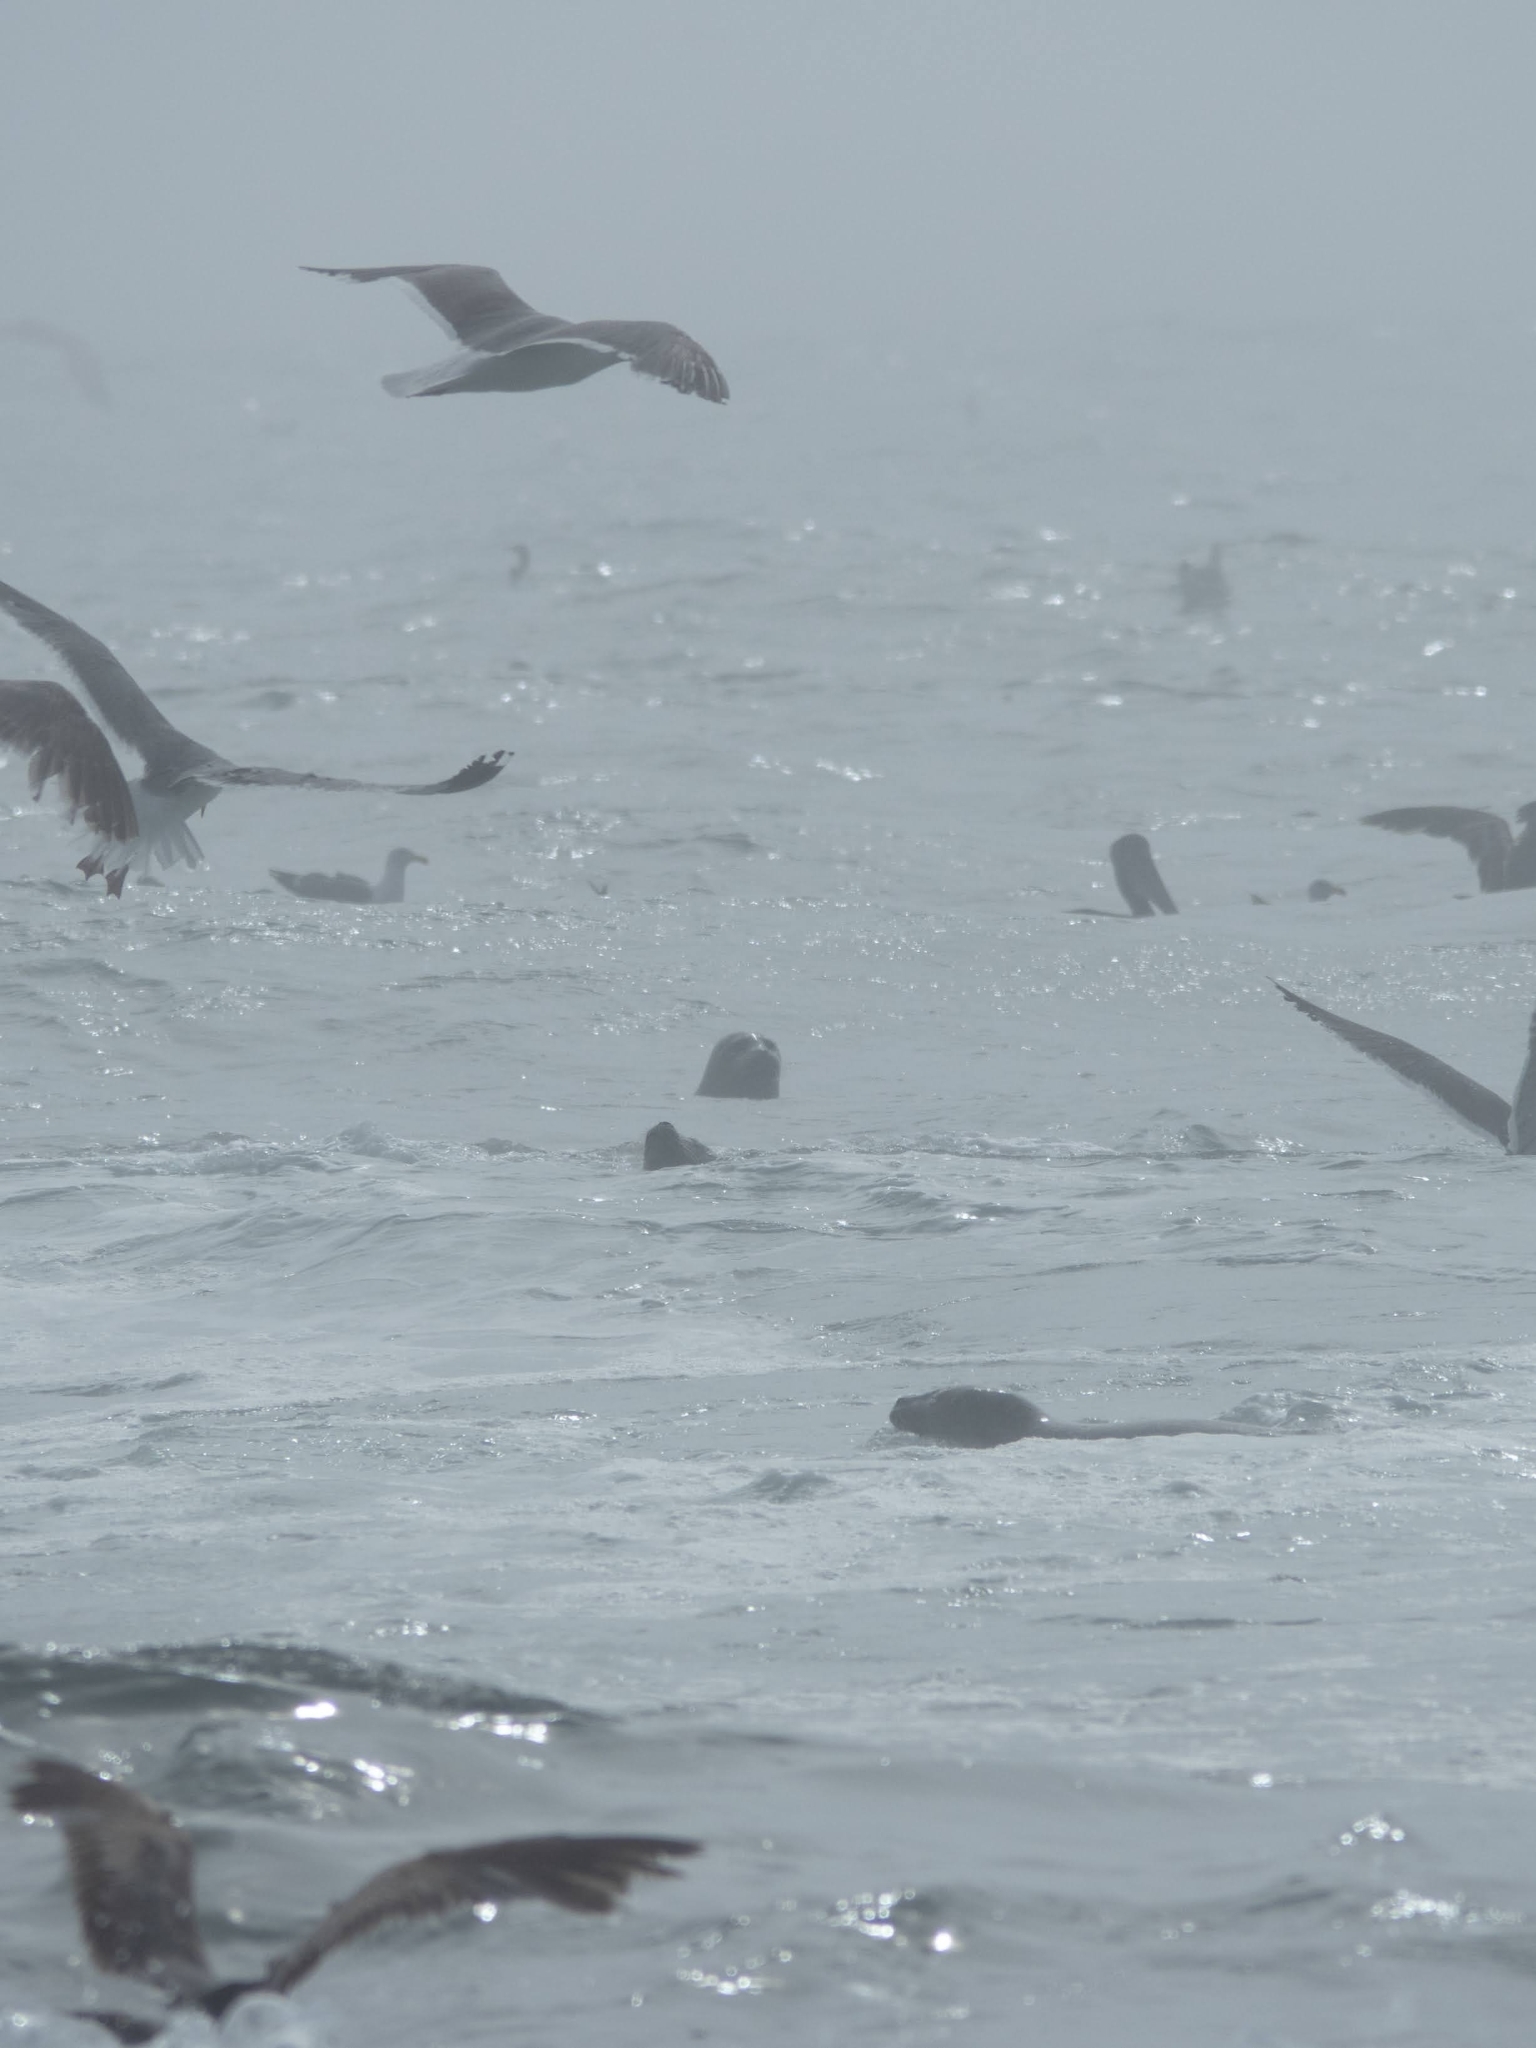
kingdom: Animalia
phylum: Chordata
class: Mammalia
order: Carnivora
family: Phocidae
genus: Phoca
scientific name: Phoca vitulina
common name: Harbor seal
